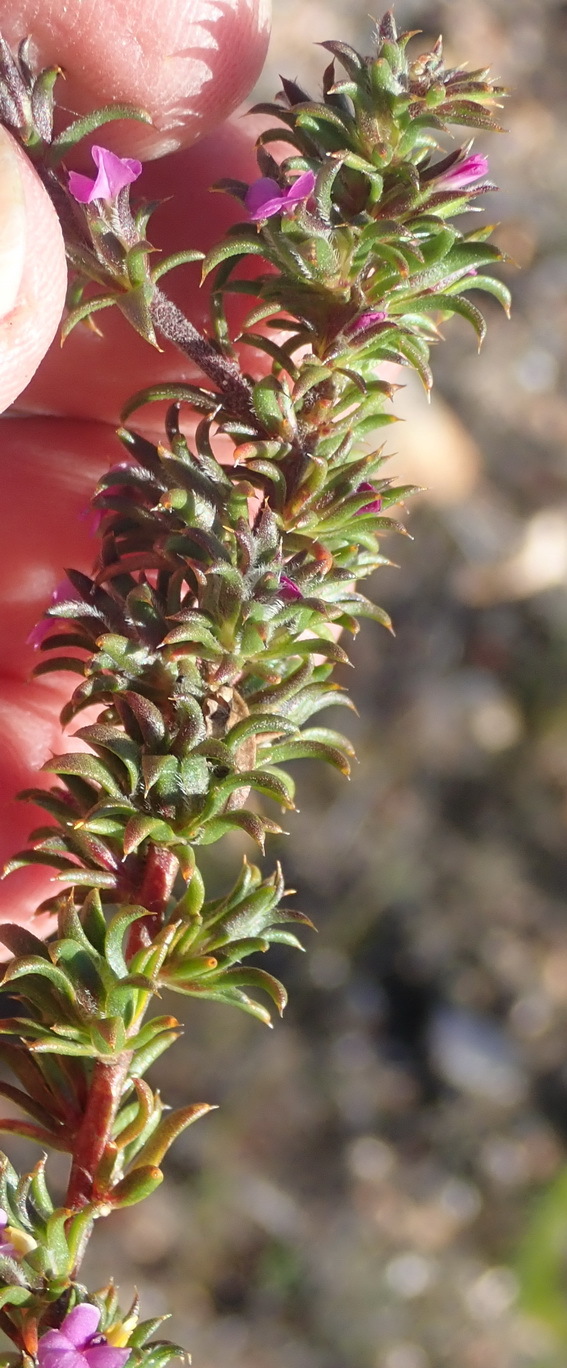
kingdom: Plantae
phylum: Tracheophyta
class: Magnoliopsida
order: Fabales
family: Polygalaceae
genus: Muraltia
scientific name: Muraltia squarrosa
